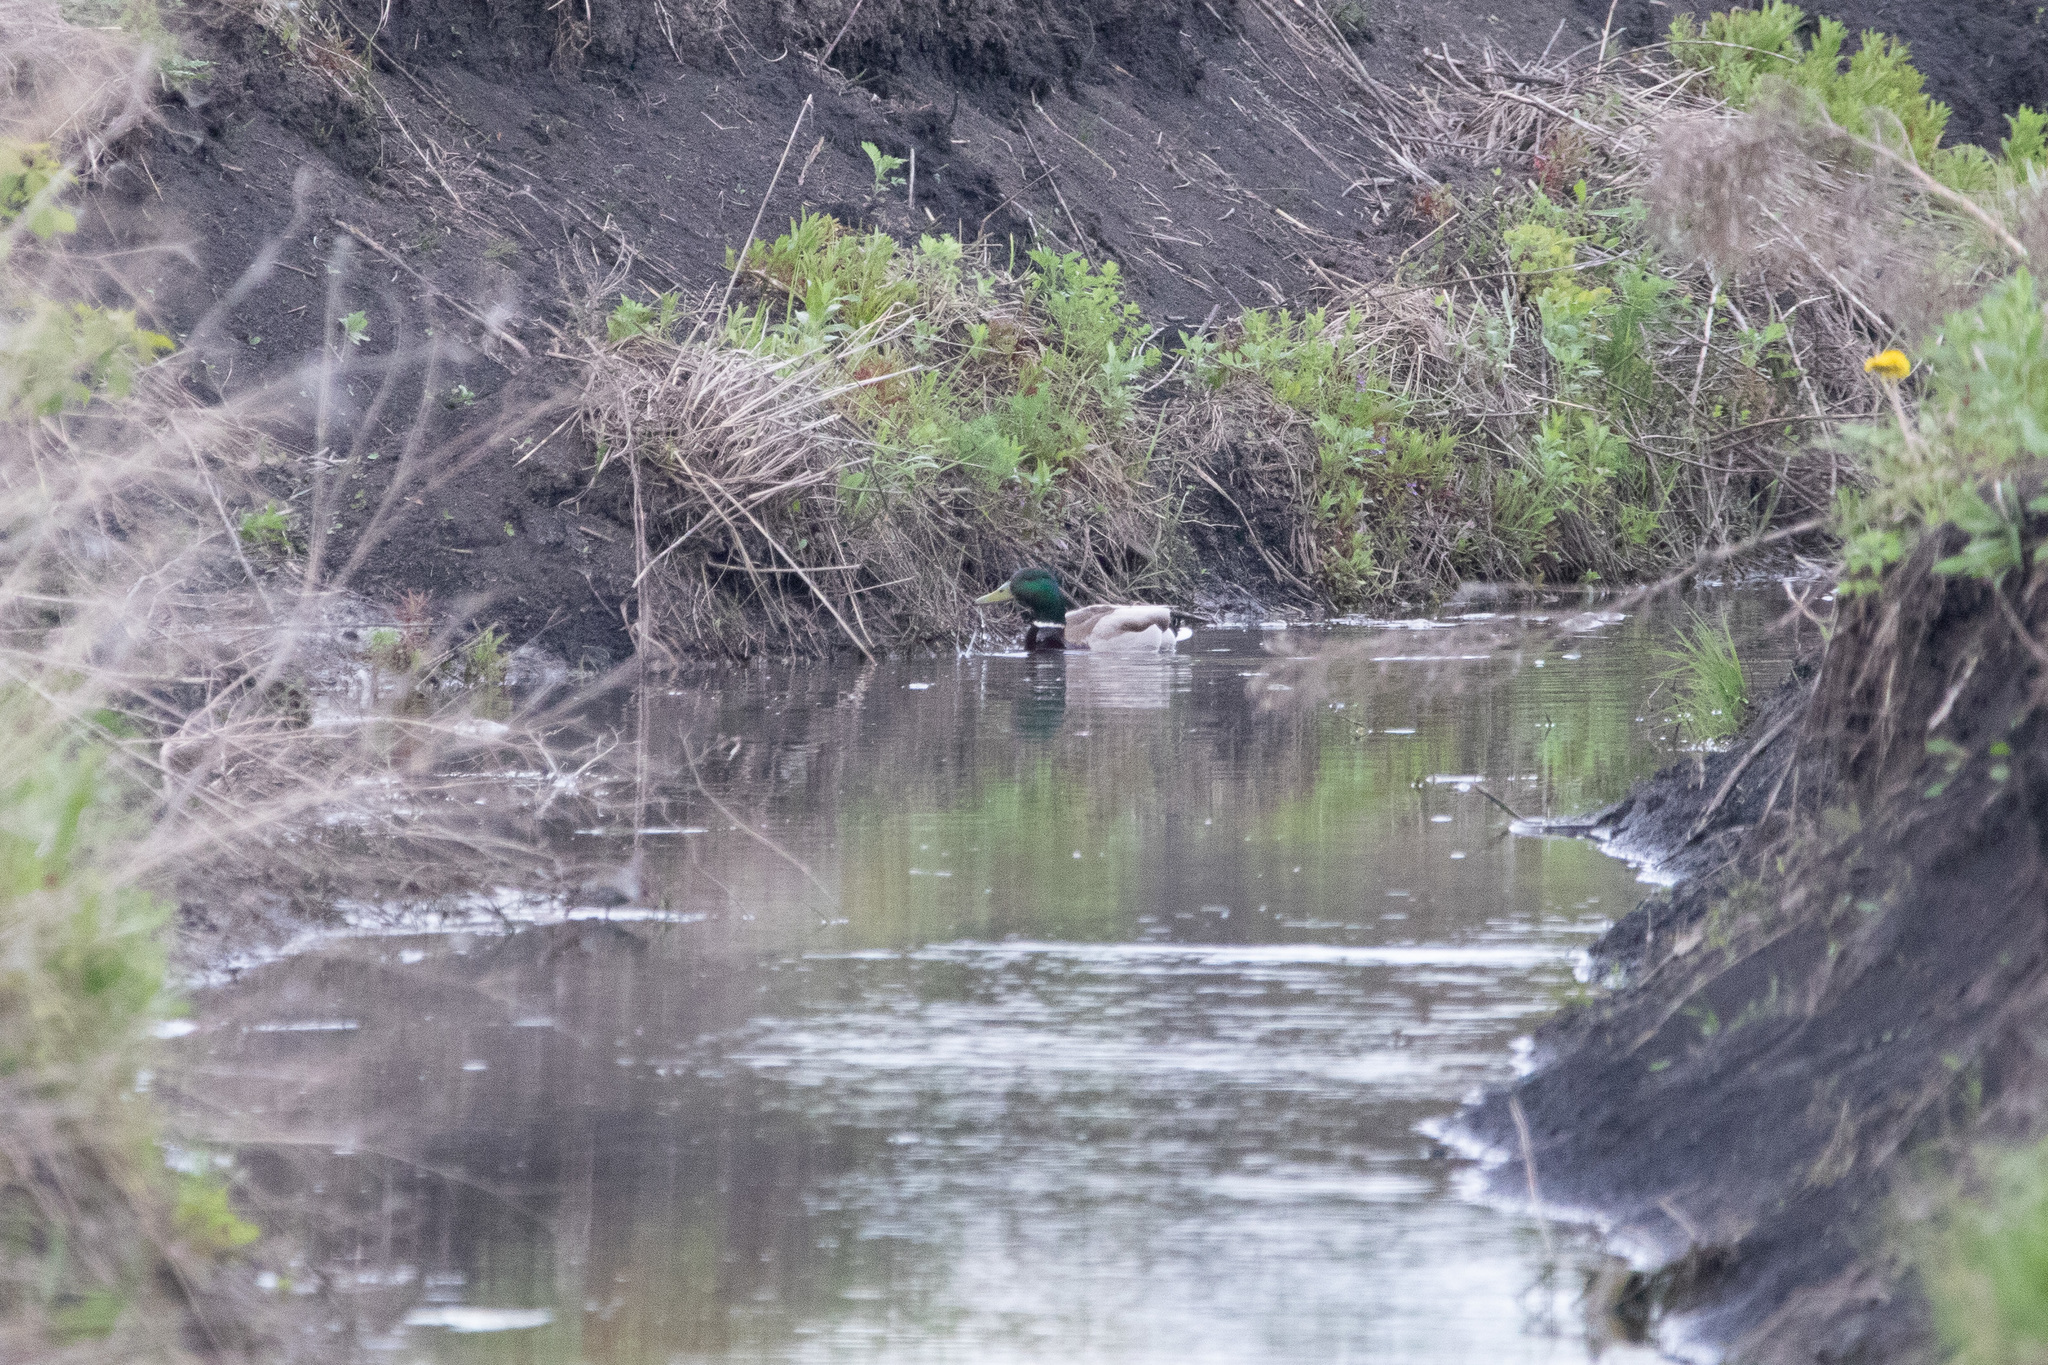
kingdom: Animalia
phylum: Chordata
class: Aves
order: Anseriformes
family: Anatidae
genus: Anas
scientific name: Anas platyrhynchos
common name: Mallard
